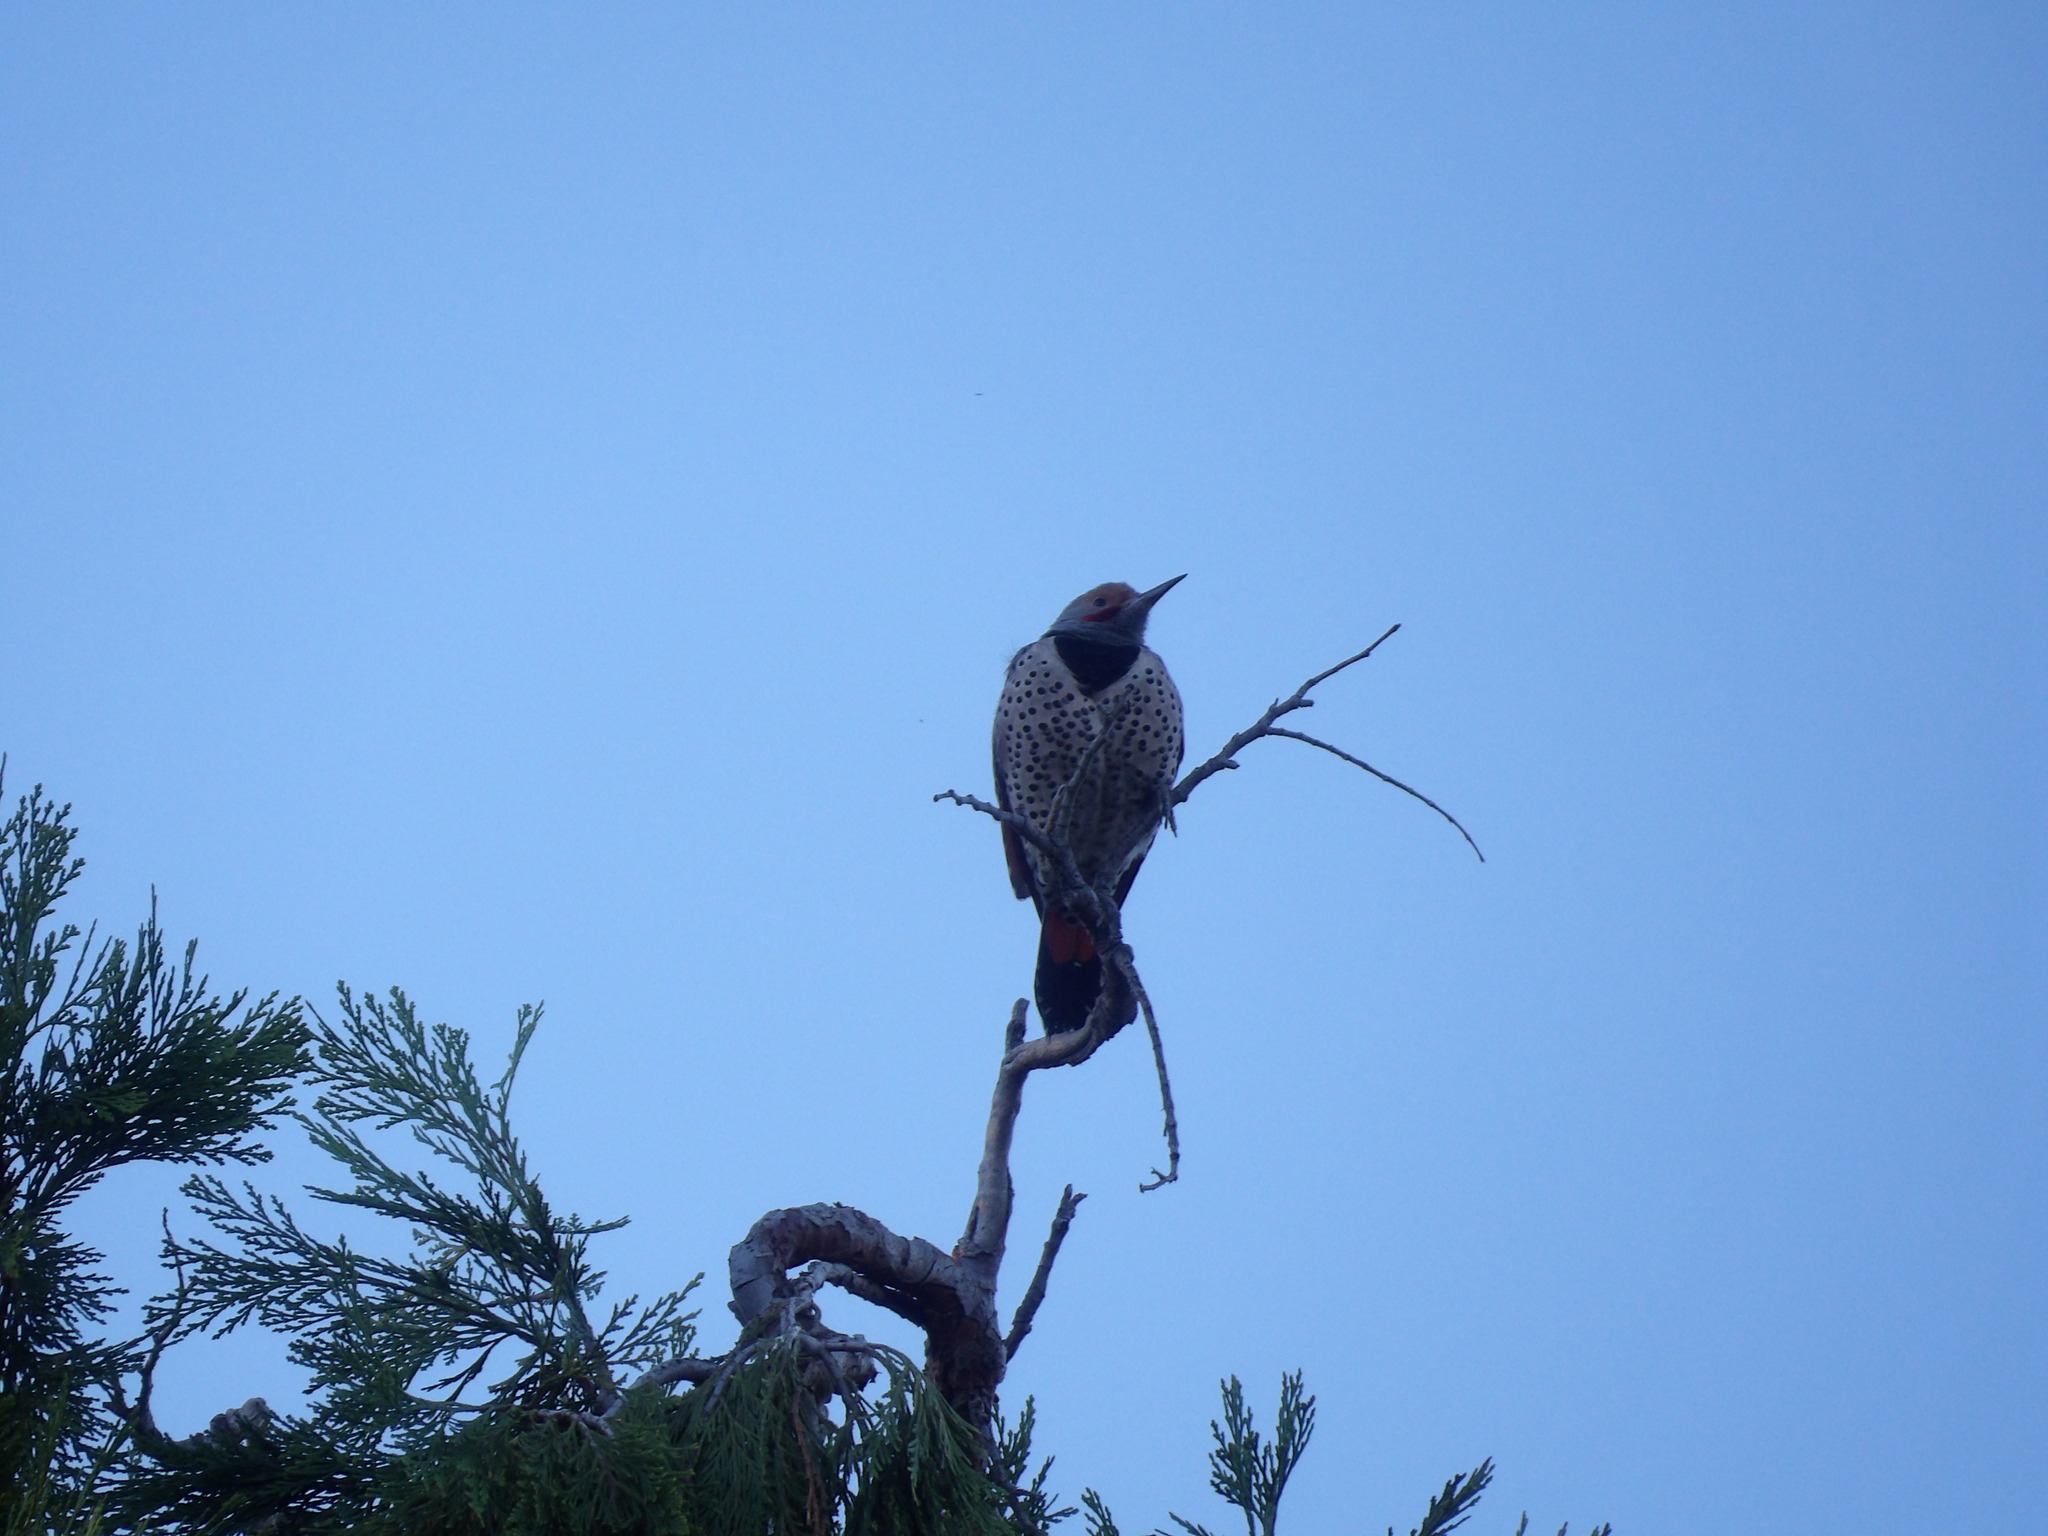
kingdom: Animalia
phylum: Chordata
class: Aves
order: Piciformes
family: Picidae
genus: Colaptes
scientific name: Colaptes auratus
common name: Northern flicker
